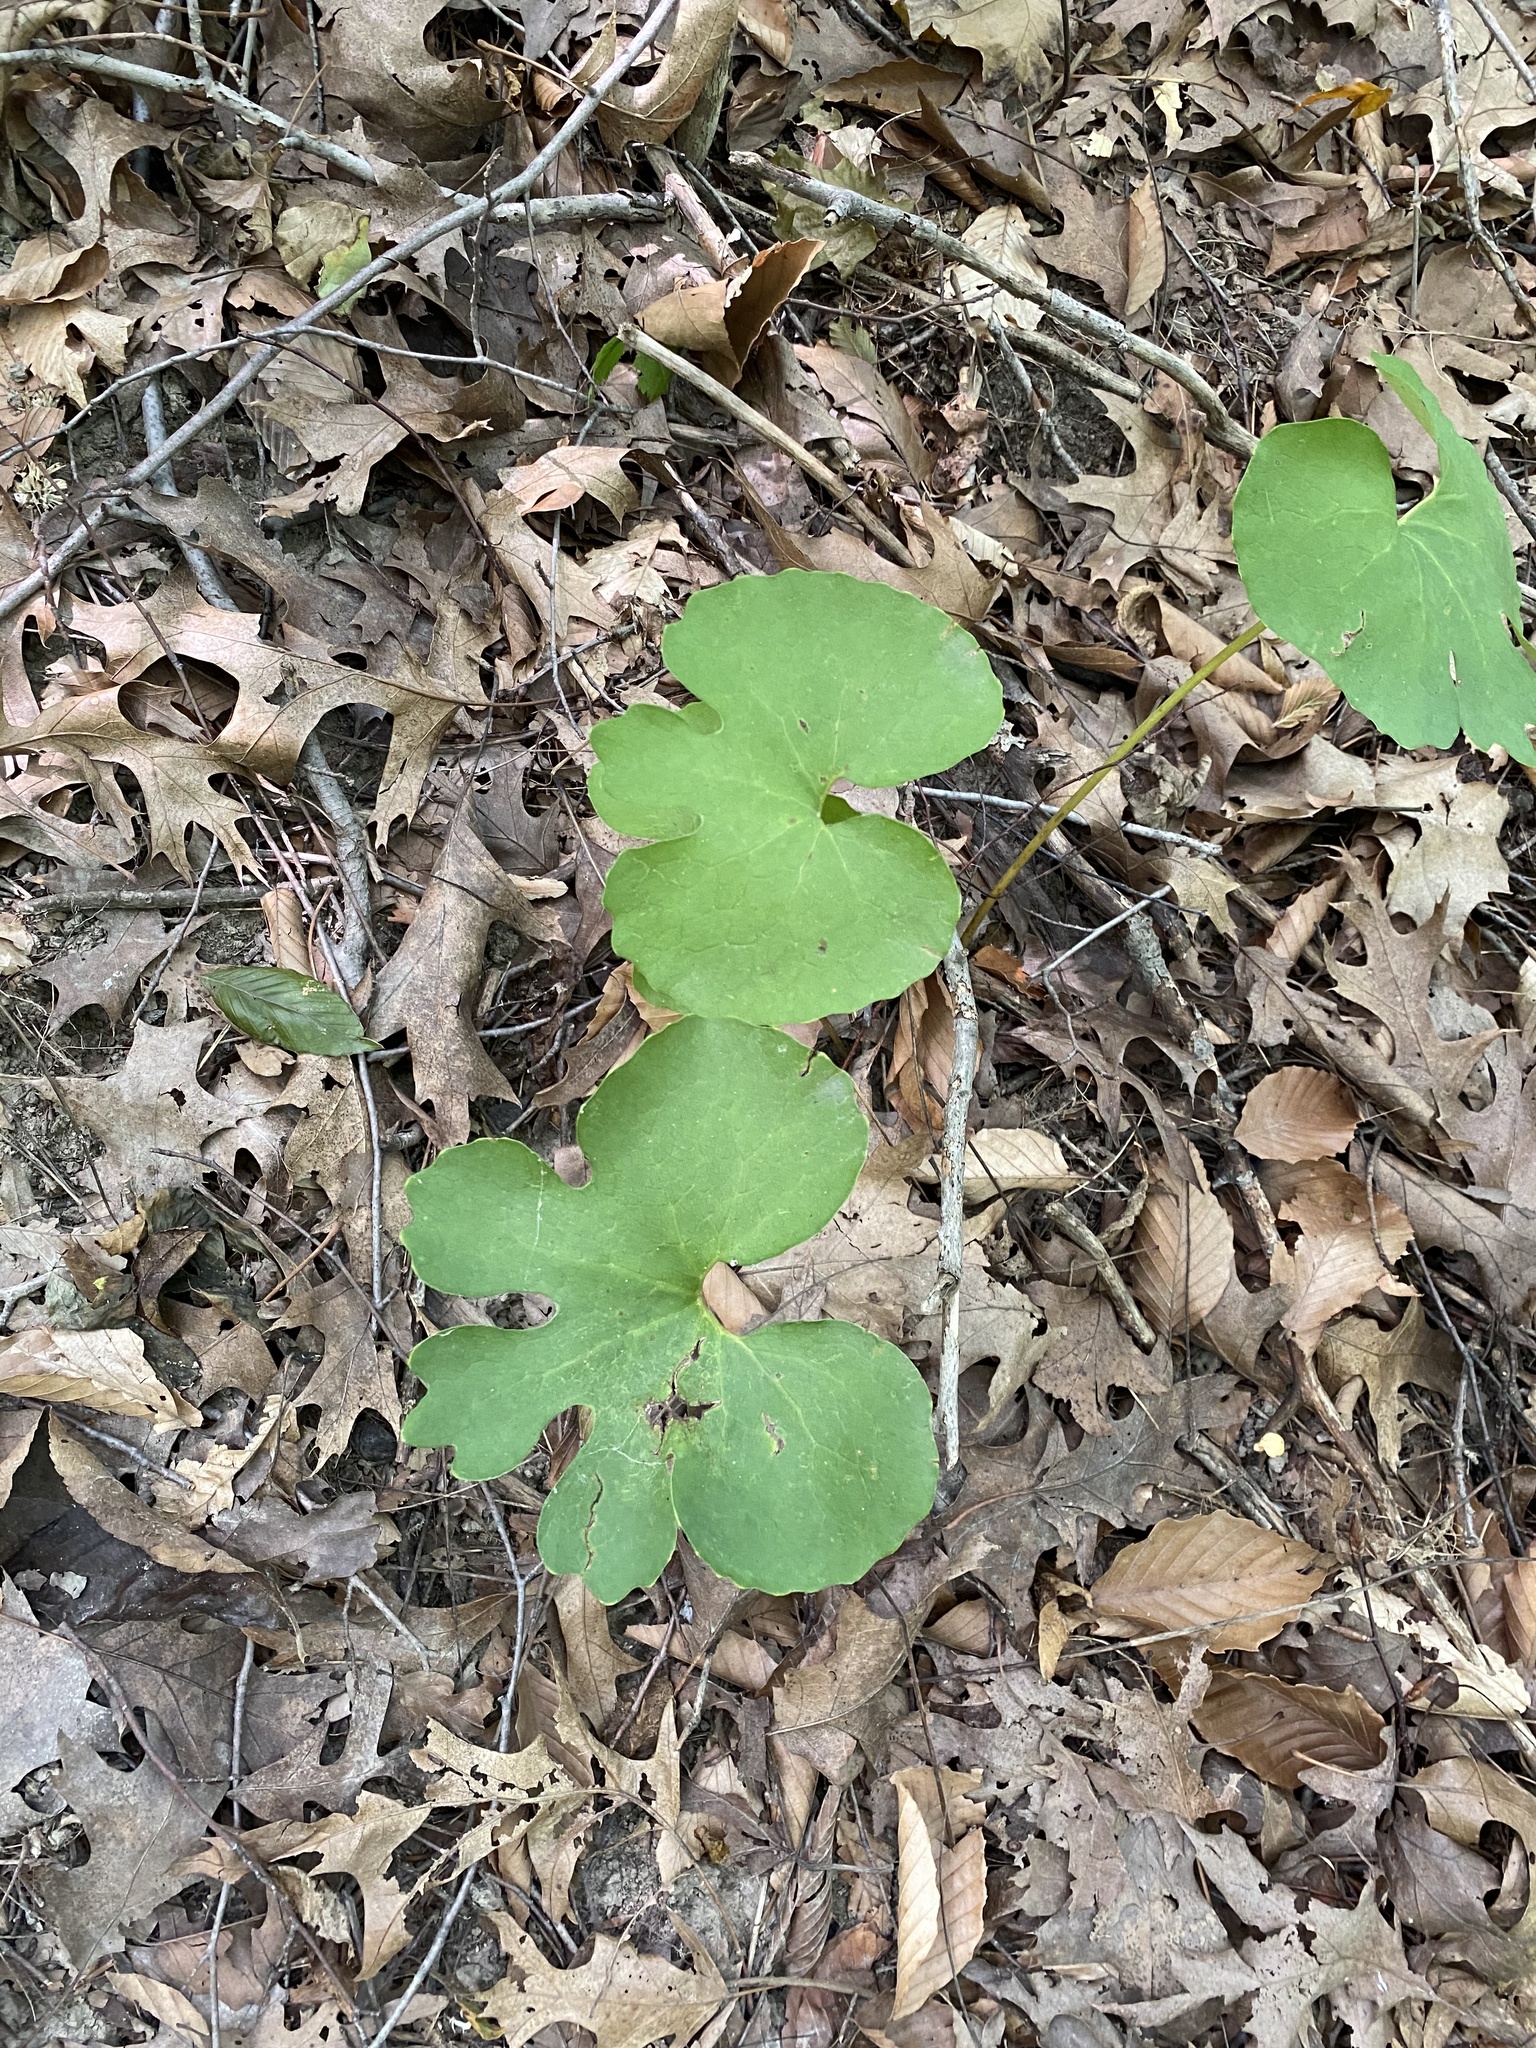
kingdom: Plantae
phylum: Tracheophyta
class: Magnoliopsida
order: Ranunculales
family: Papaveraceae
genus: Sanguinaria
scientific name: Sanguinaria canadensis
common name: Bloodroot
